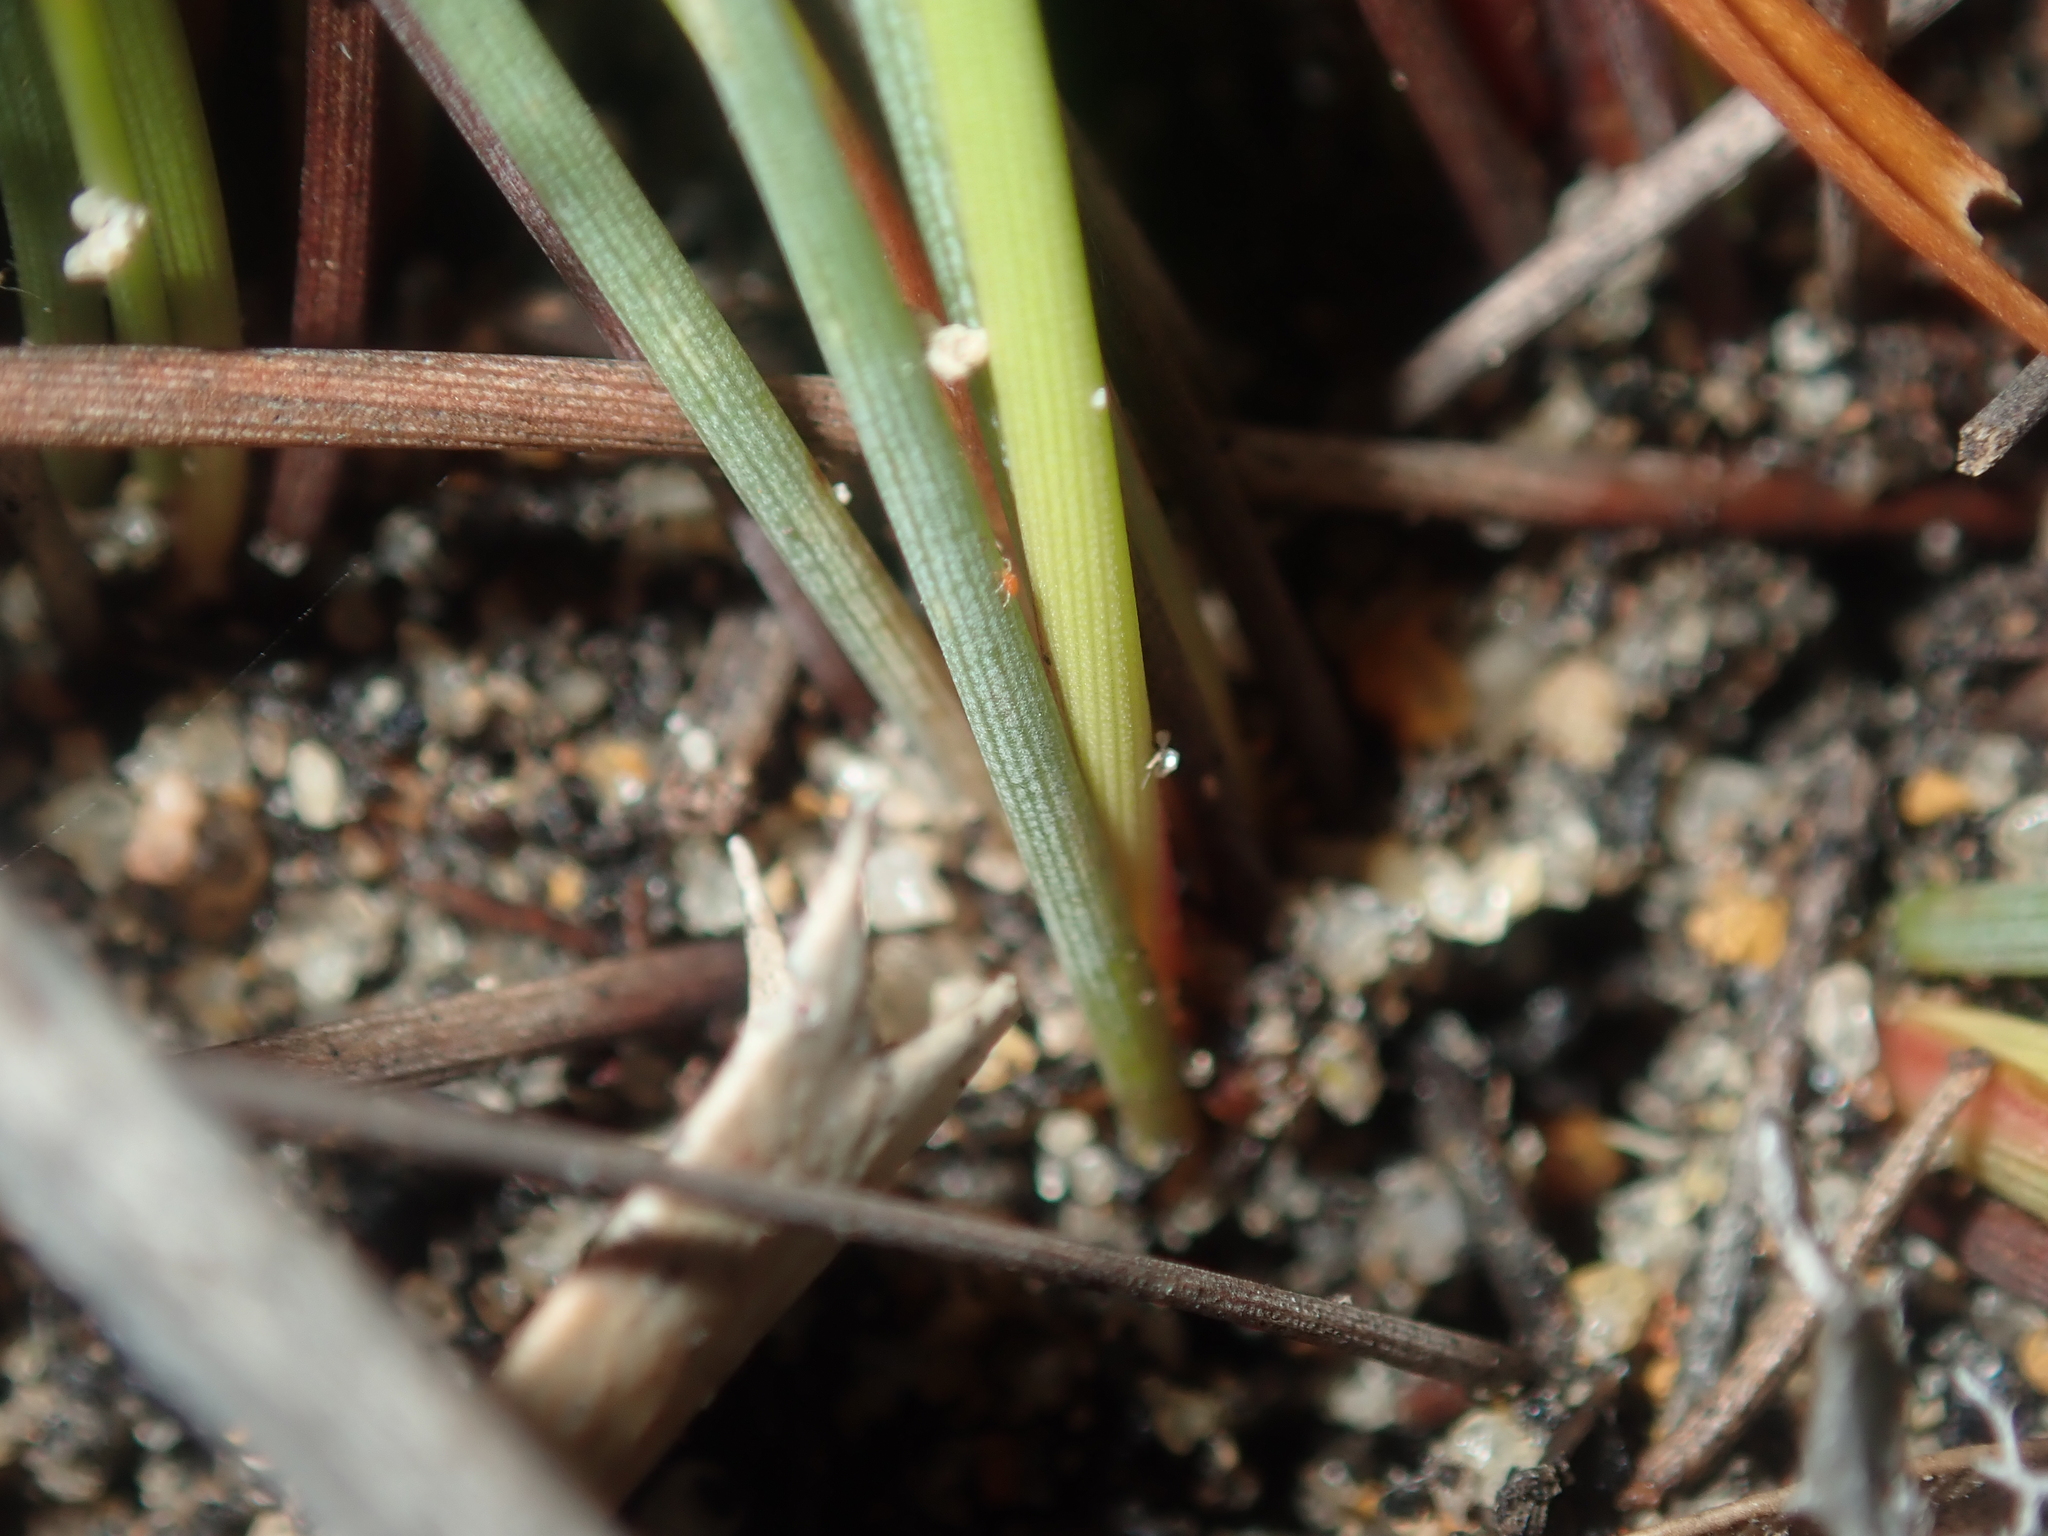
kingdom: Plantae
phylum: Tracheophyta
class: Liliopsida
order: Poales
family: Restionaceae
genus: Anarthria
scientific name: Anarthria humilis
